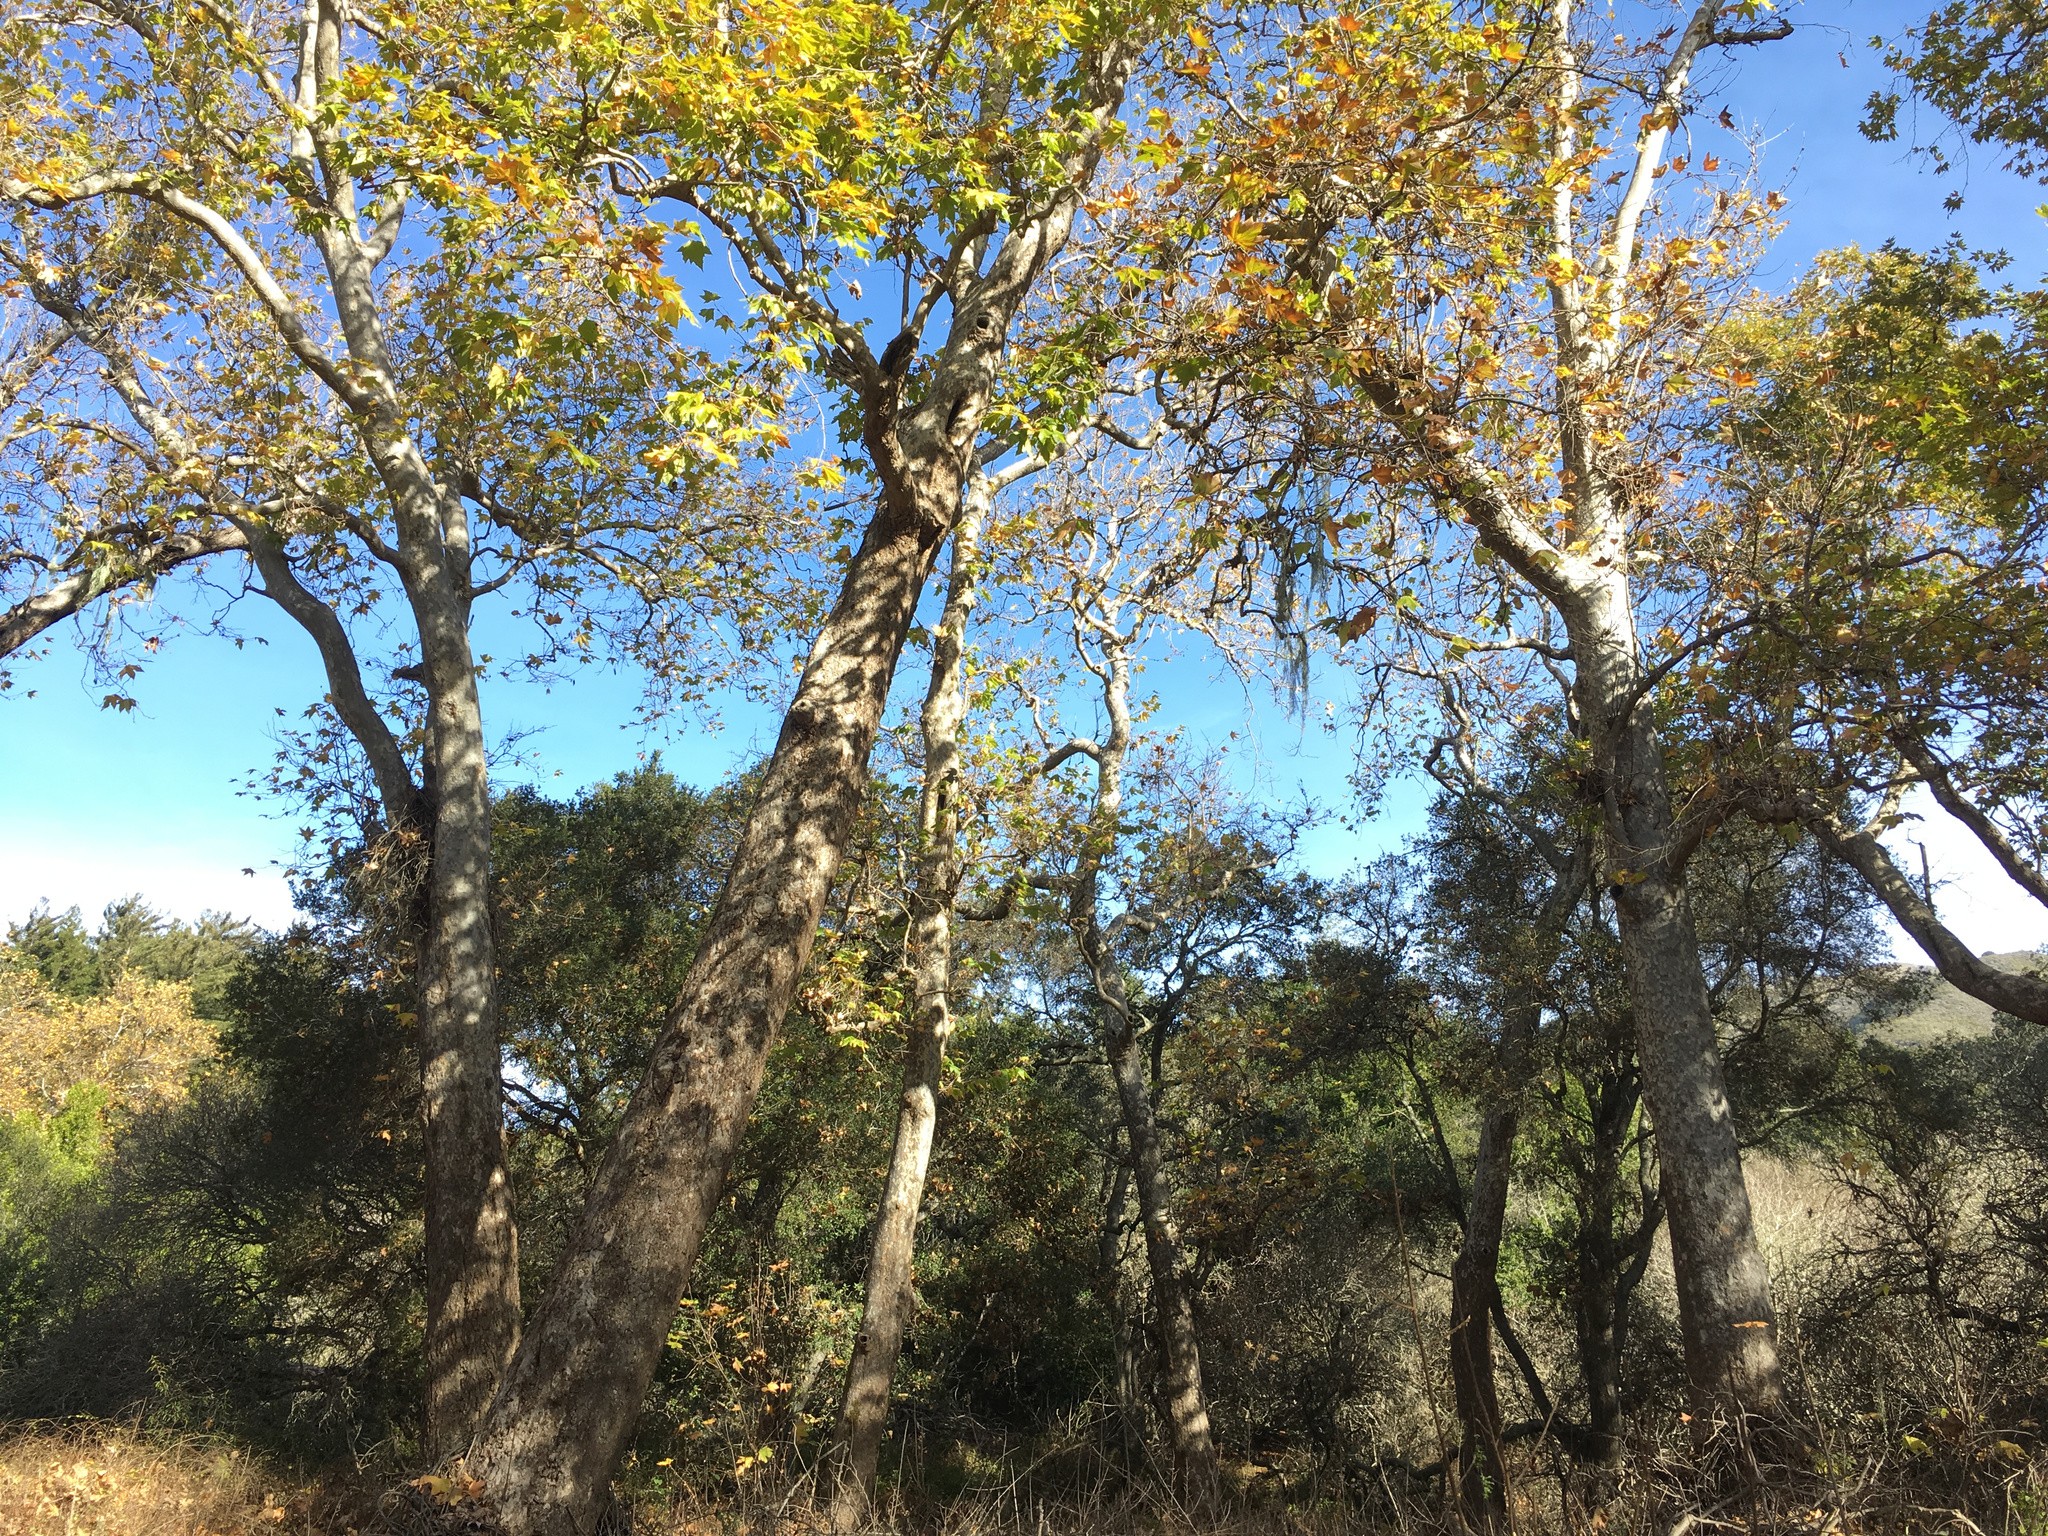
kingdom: Plantae
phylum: Tracheophyta
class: Magnoliopsida
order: Proteales
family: Platanaceae
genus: Platanus
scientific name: Platanus racemosa
